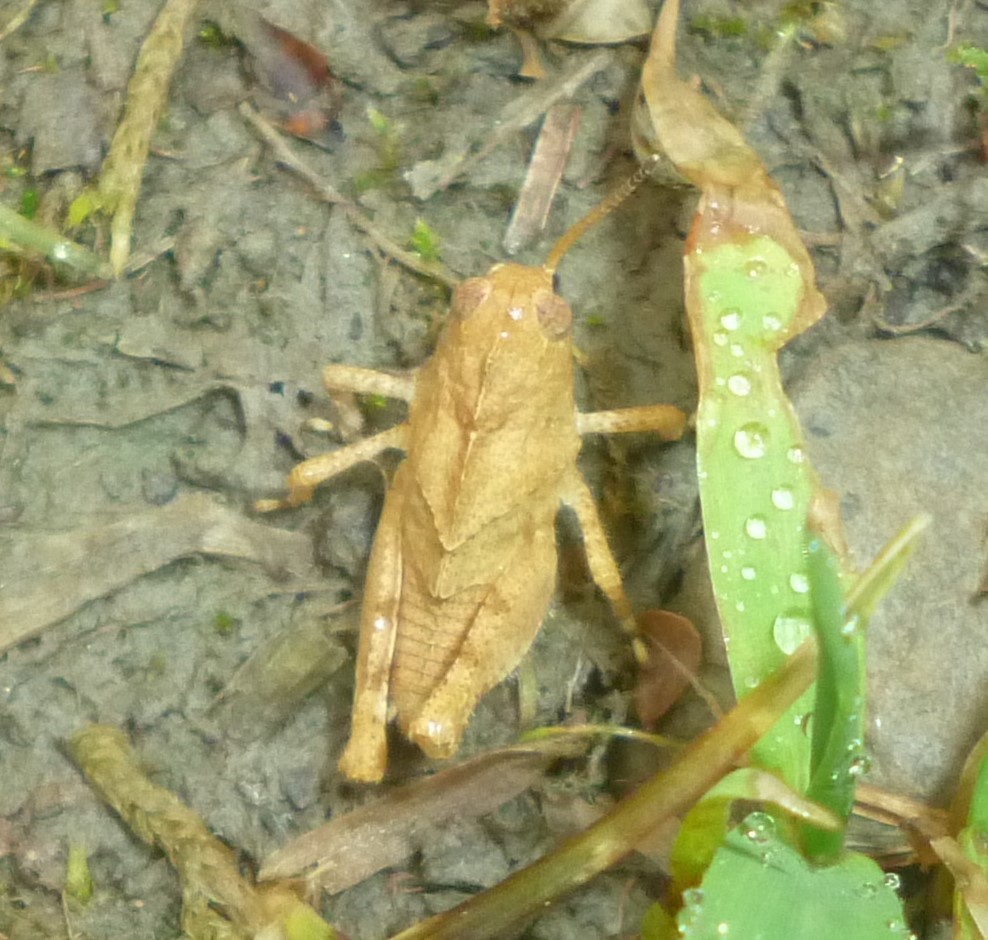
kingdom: Animalia
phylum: Arthropoda
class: Insecta
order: Orthoptera
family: Acrididae
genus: Dissosteira
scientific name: Dissosteira carolina
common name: Carolina grasshopper
